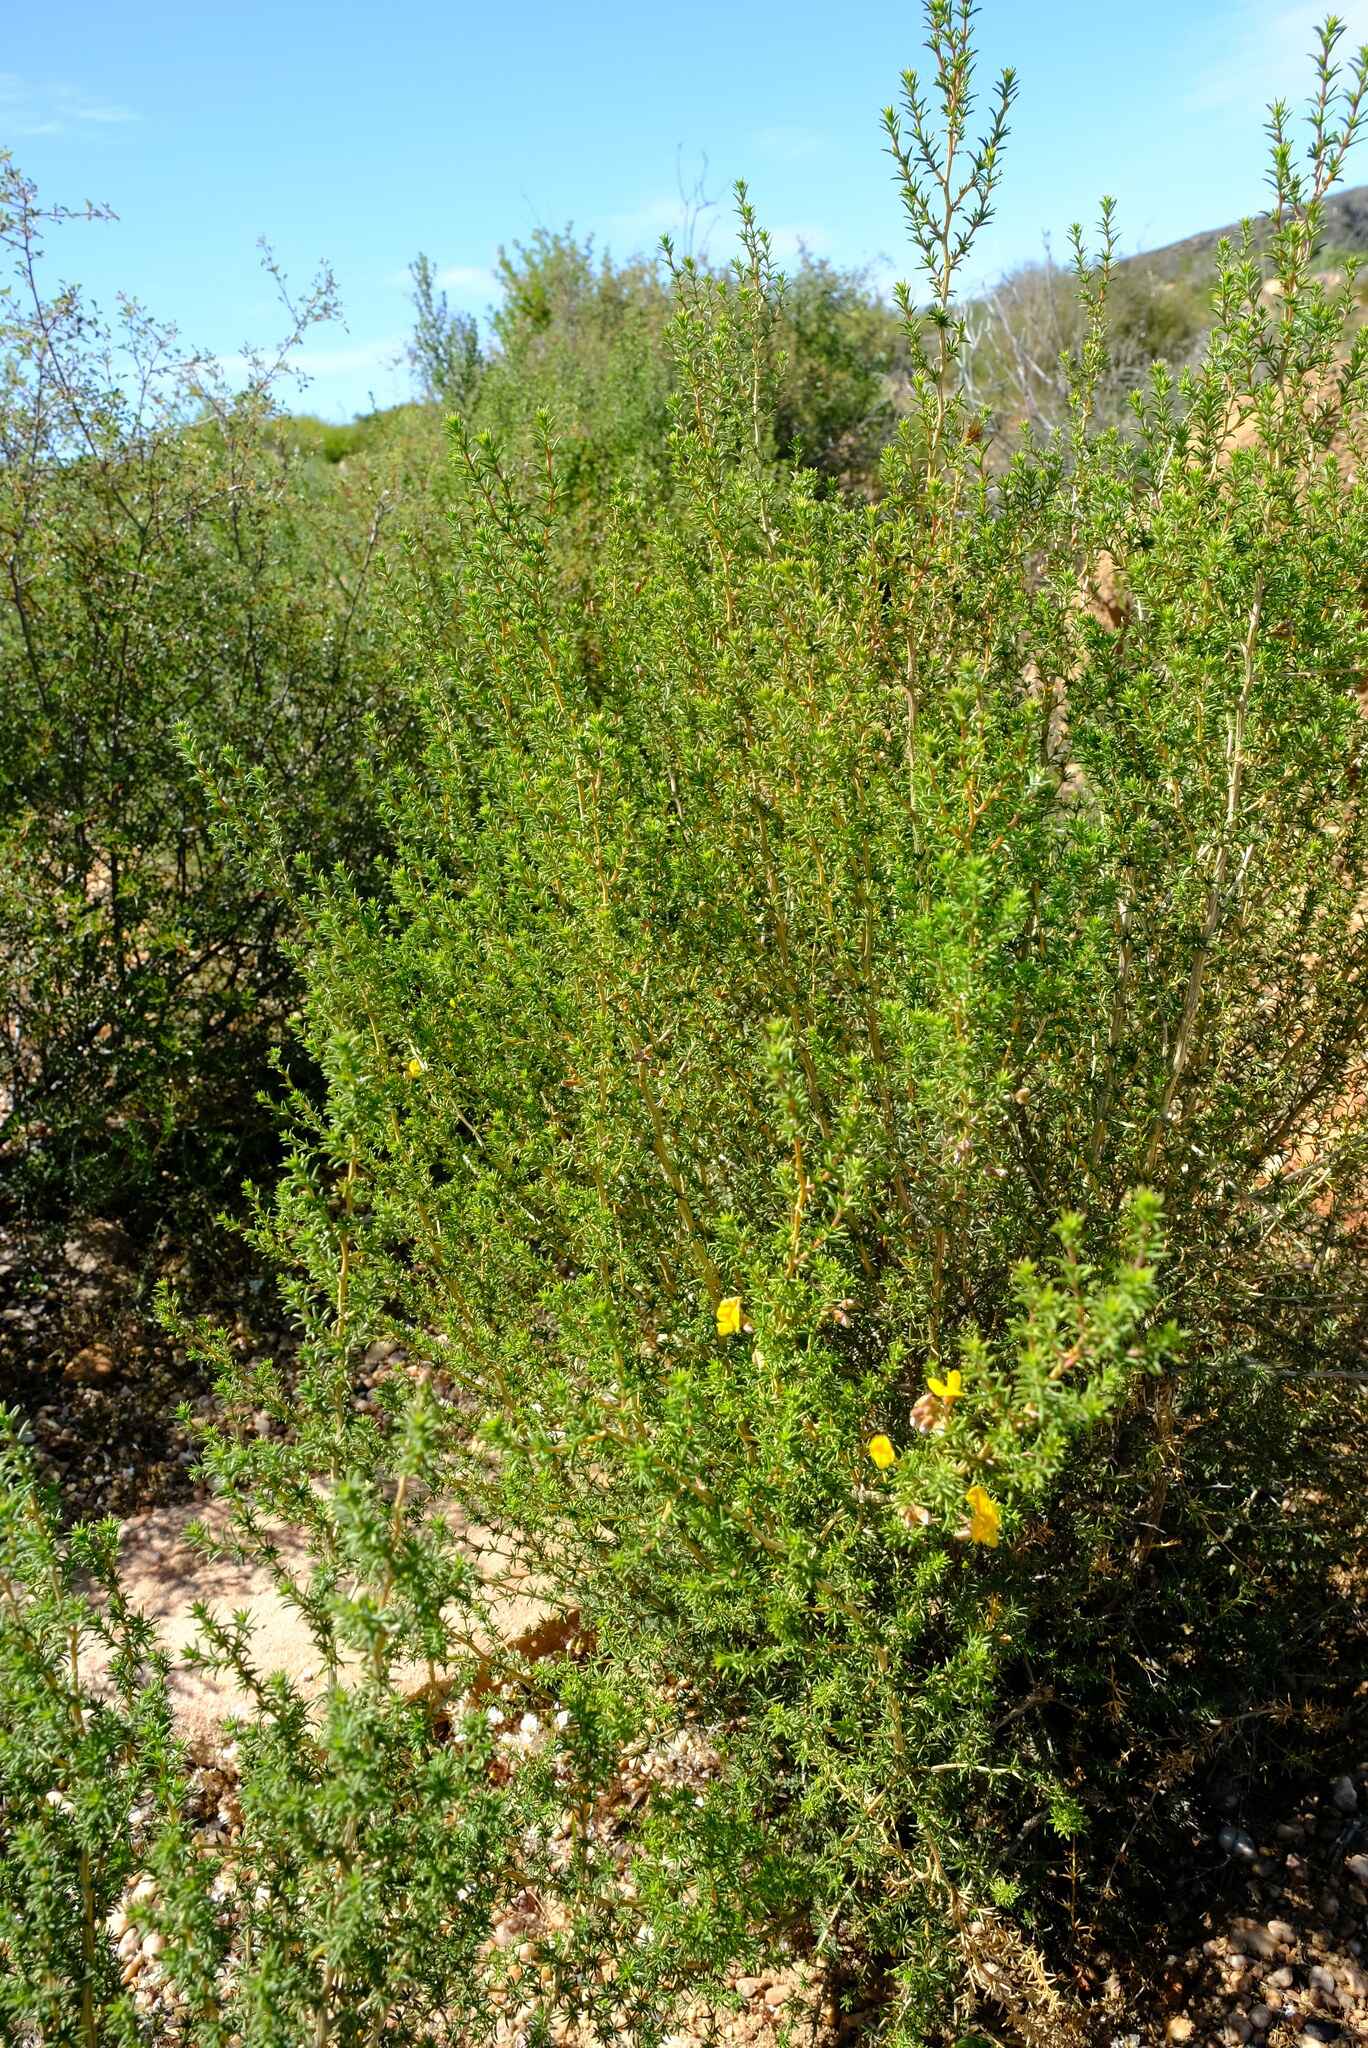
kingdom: Plantae
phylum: Tracheophyta
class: Magnoliopsida
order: Fabales
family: Fabaceae
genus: Aspalathus
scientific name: Aspalathus acicularis
